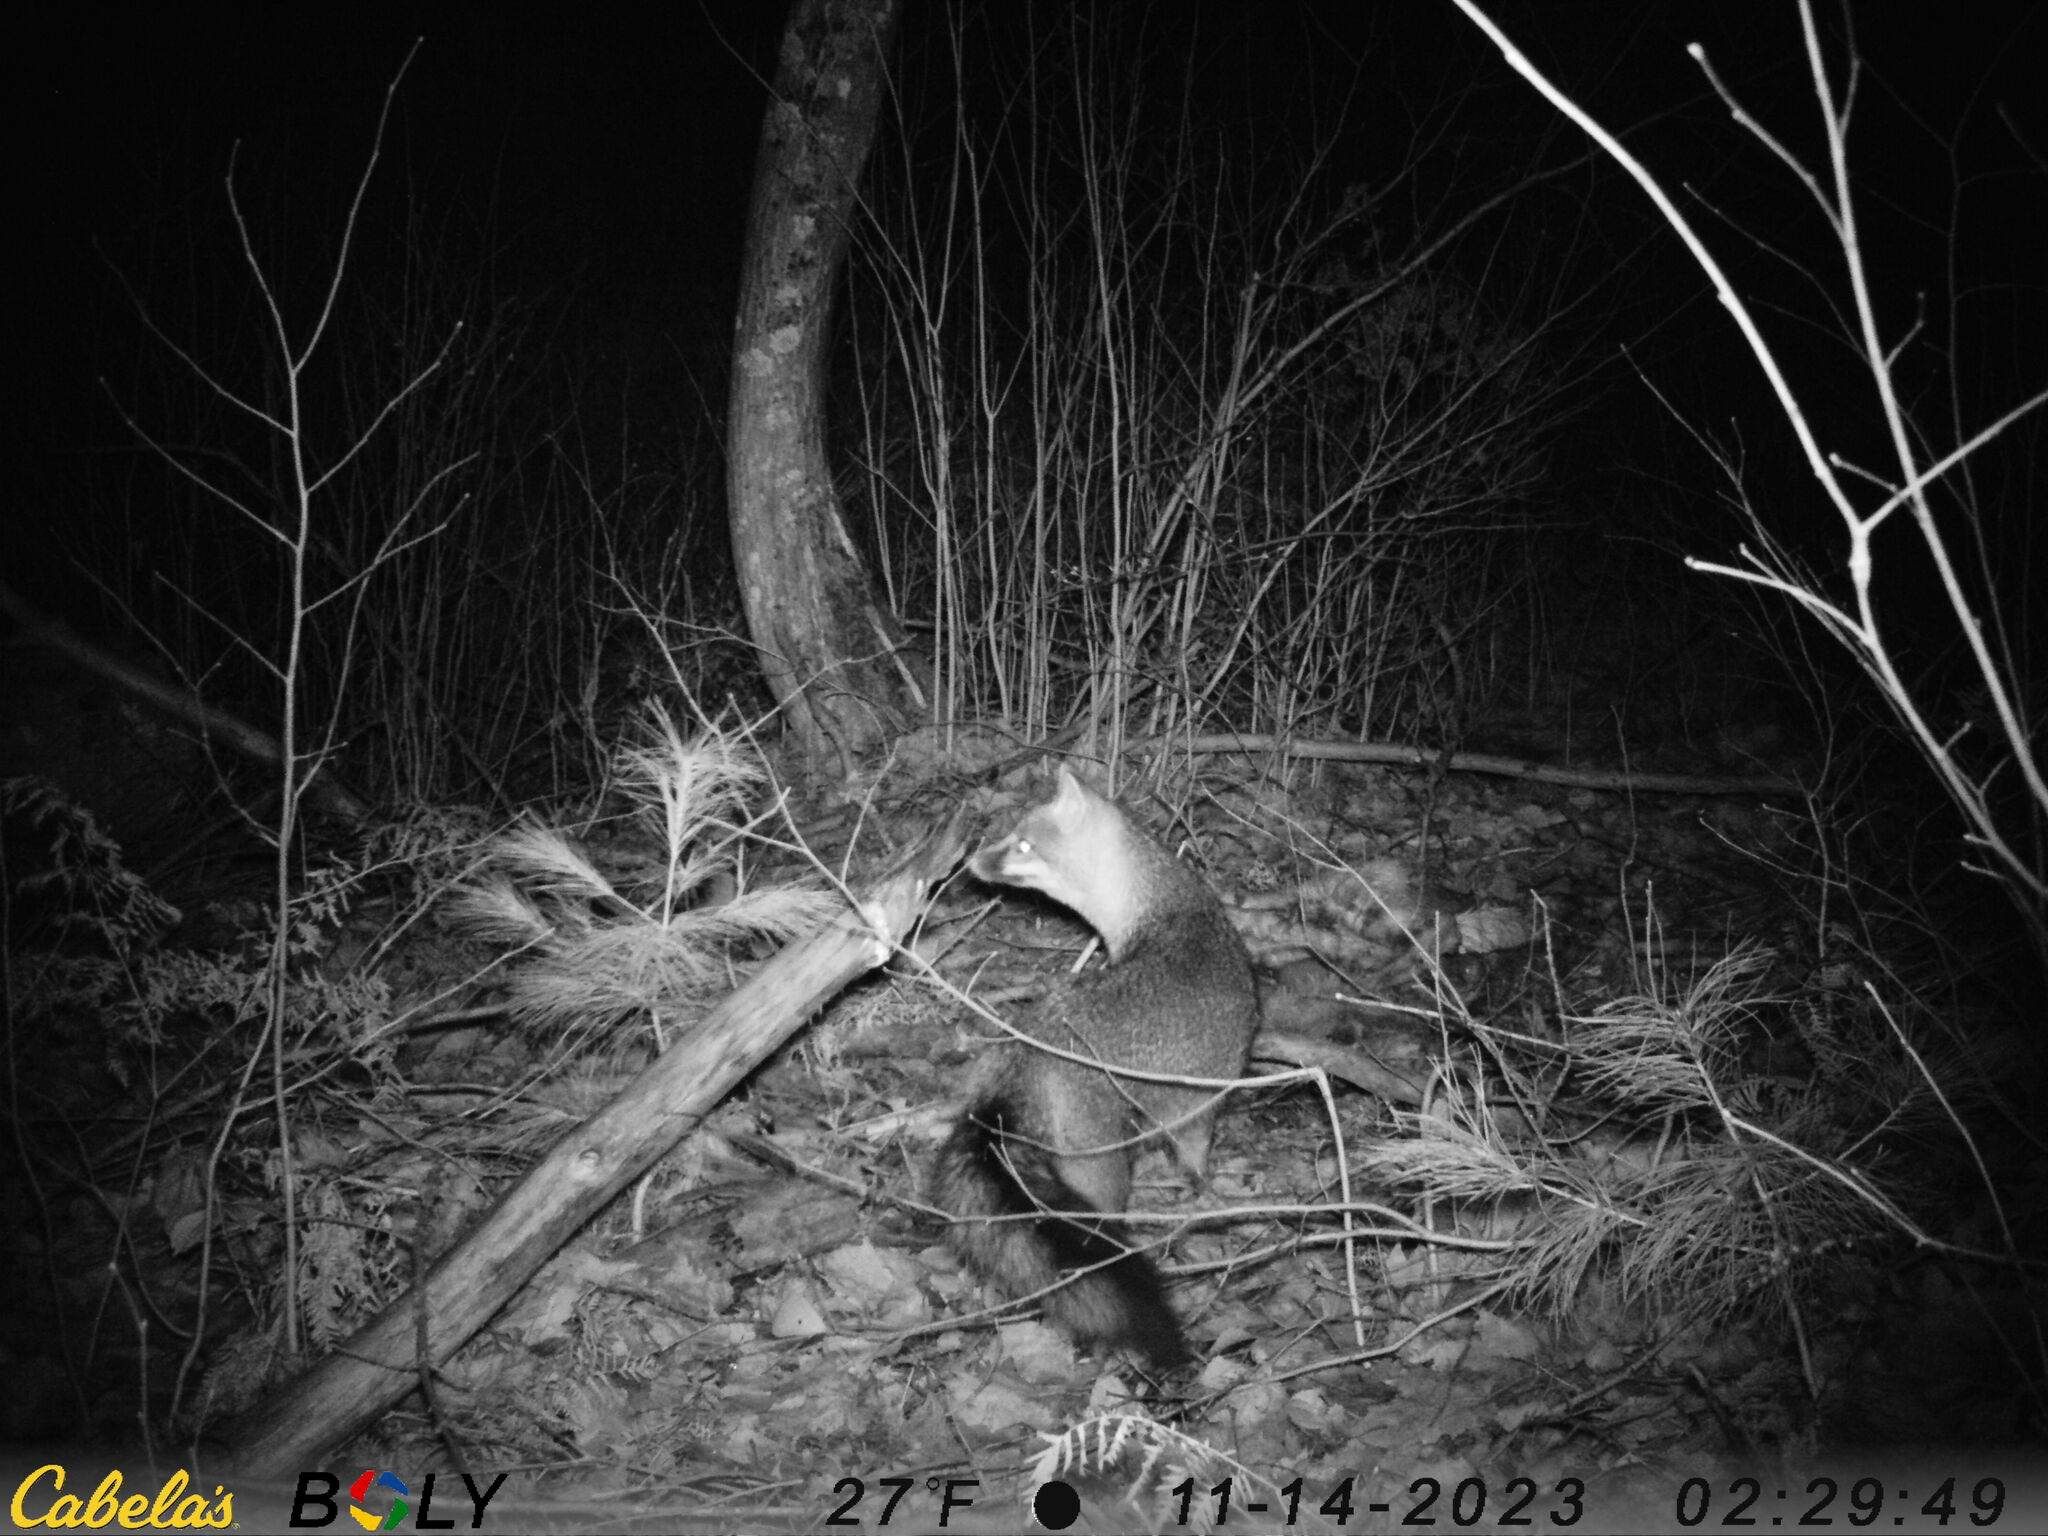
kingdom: Animalia
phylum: Chordata
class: Mammalia
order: Carnivora
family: Canidae
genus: Urocyon
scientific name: Urocyon cinereoargenteus
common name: Gray fox
